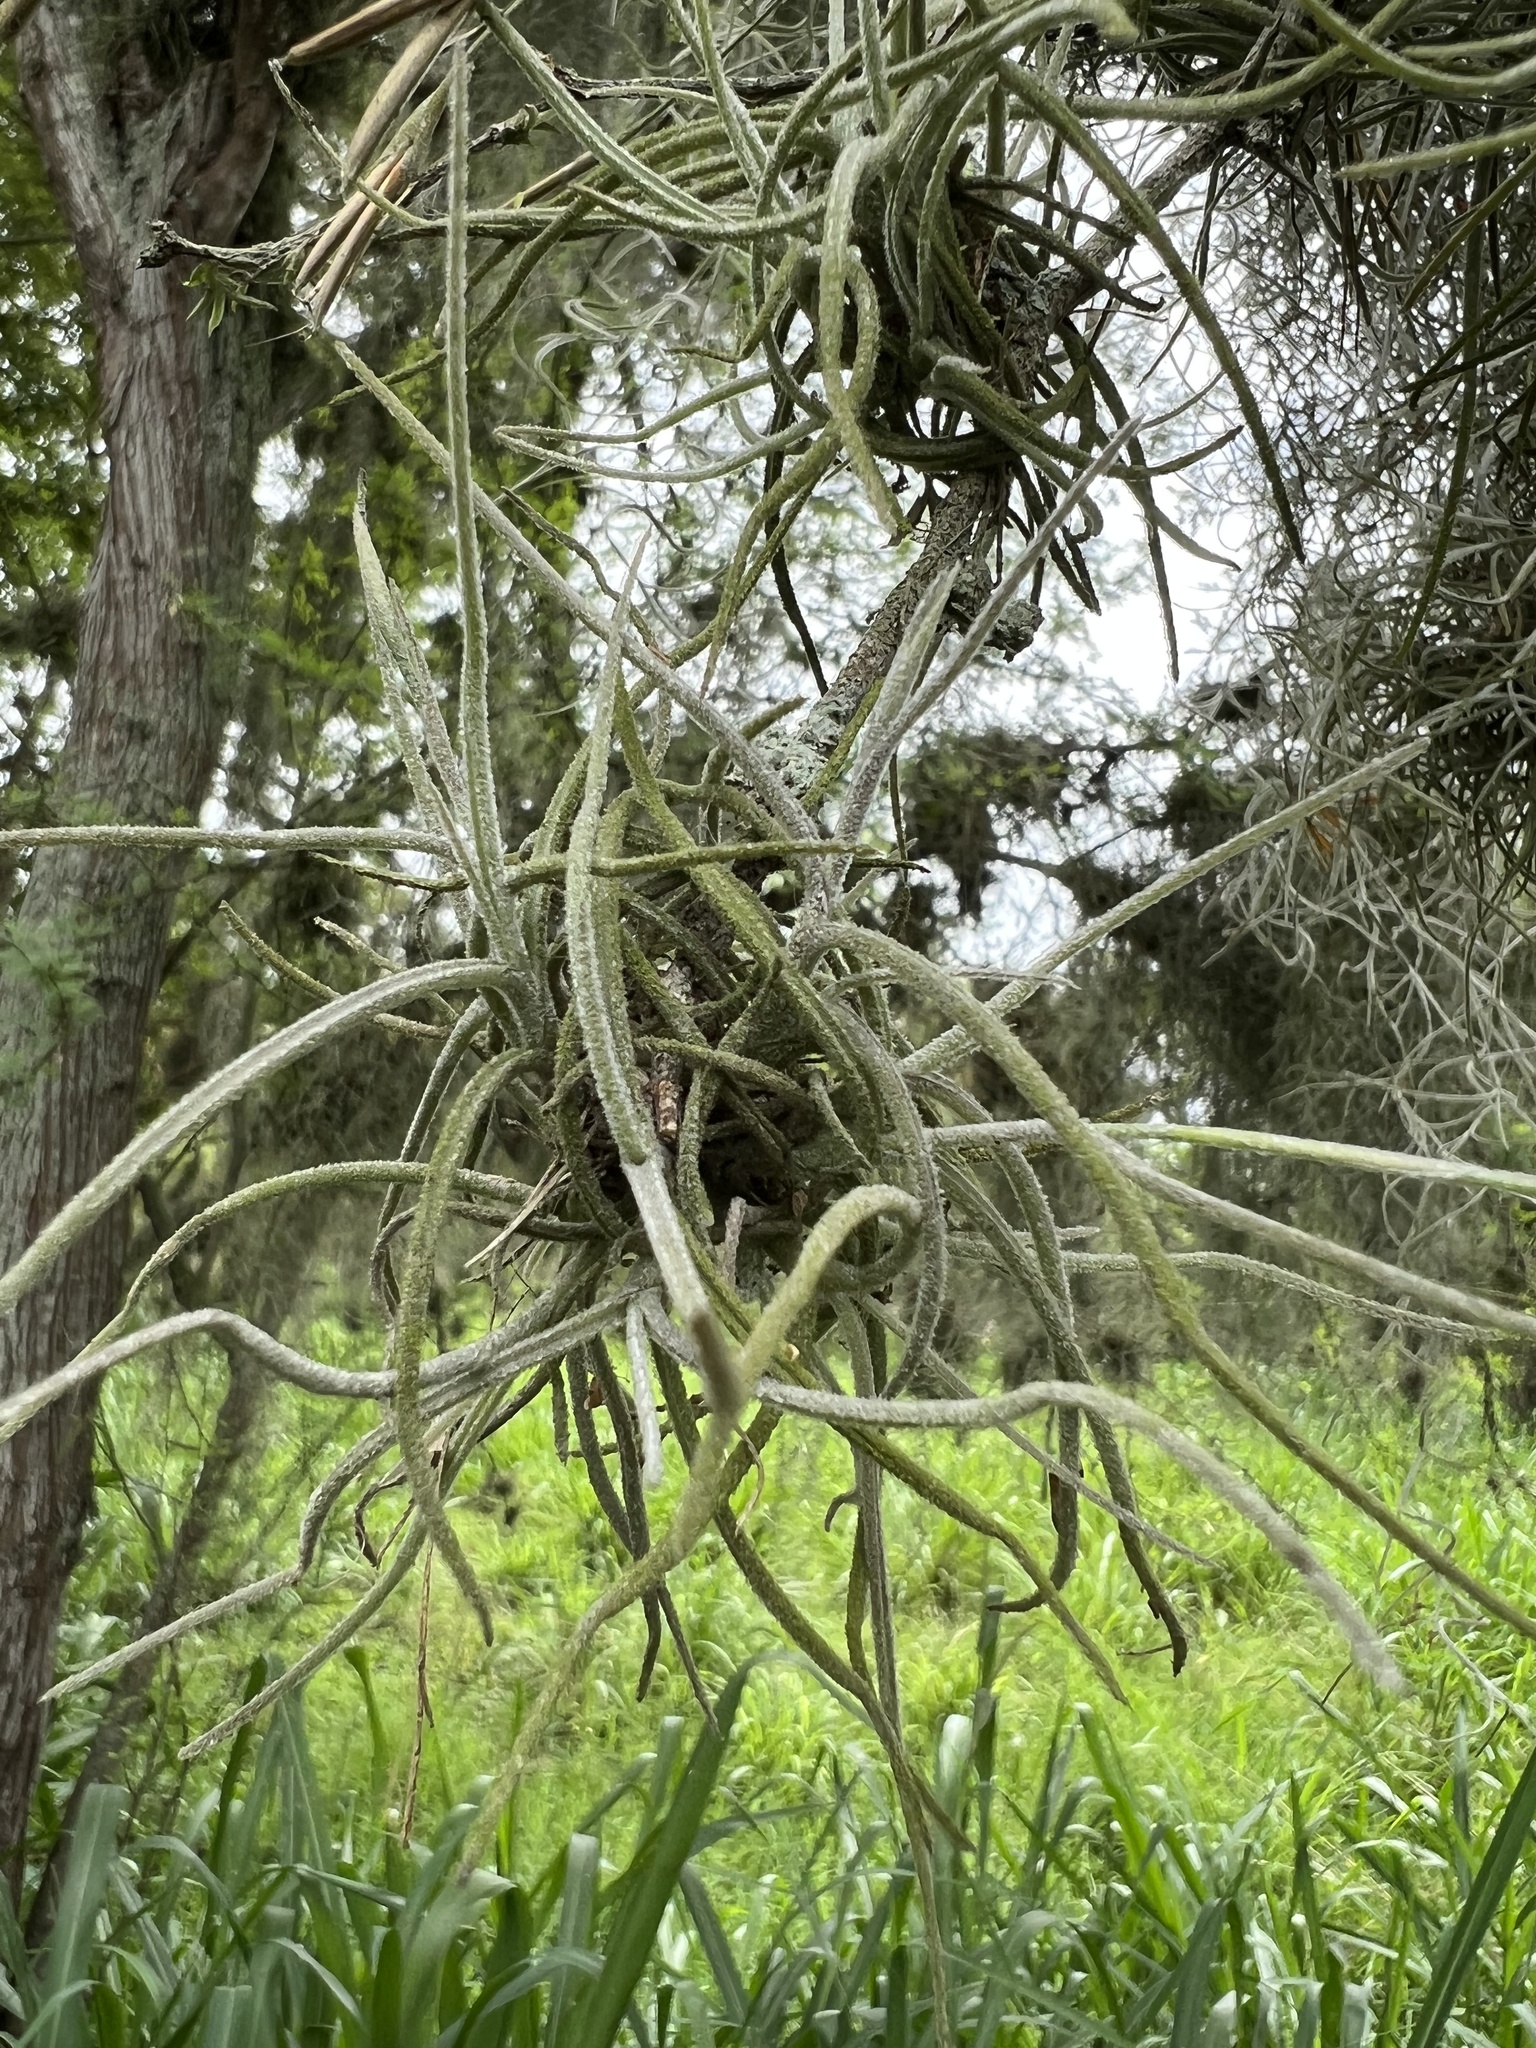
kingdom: Plantae
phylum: Tracheophyta
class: Liliopsida
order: Poales
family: Bromeliaceae
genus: Tillandsia
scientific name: Tillandsia recurvata
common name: Small ballmoss
